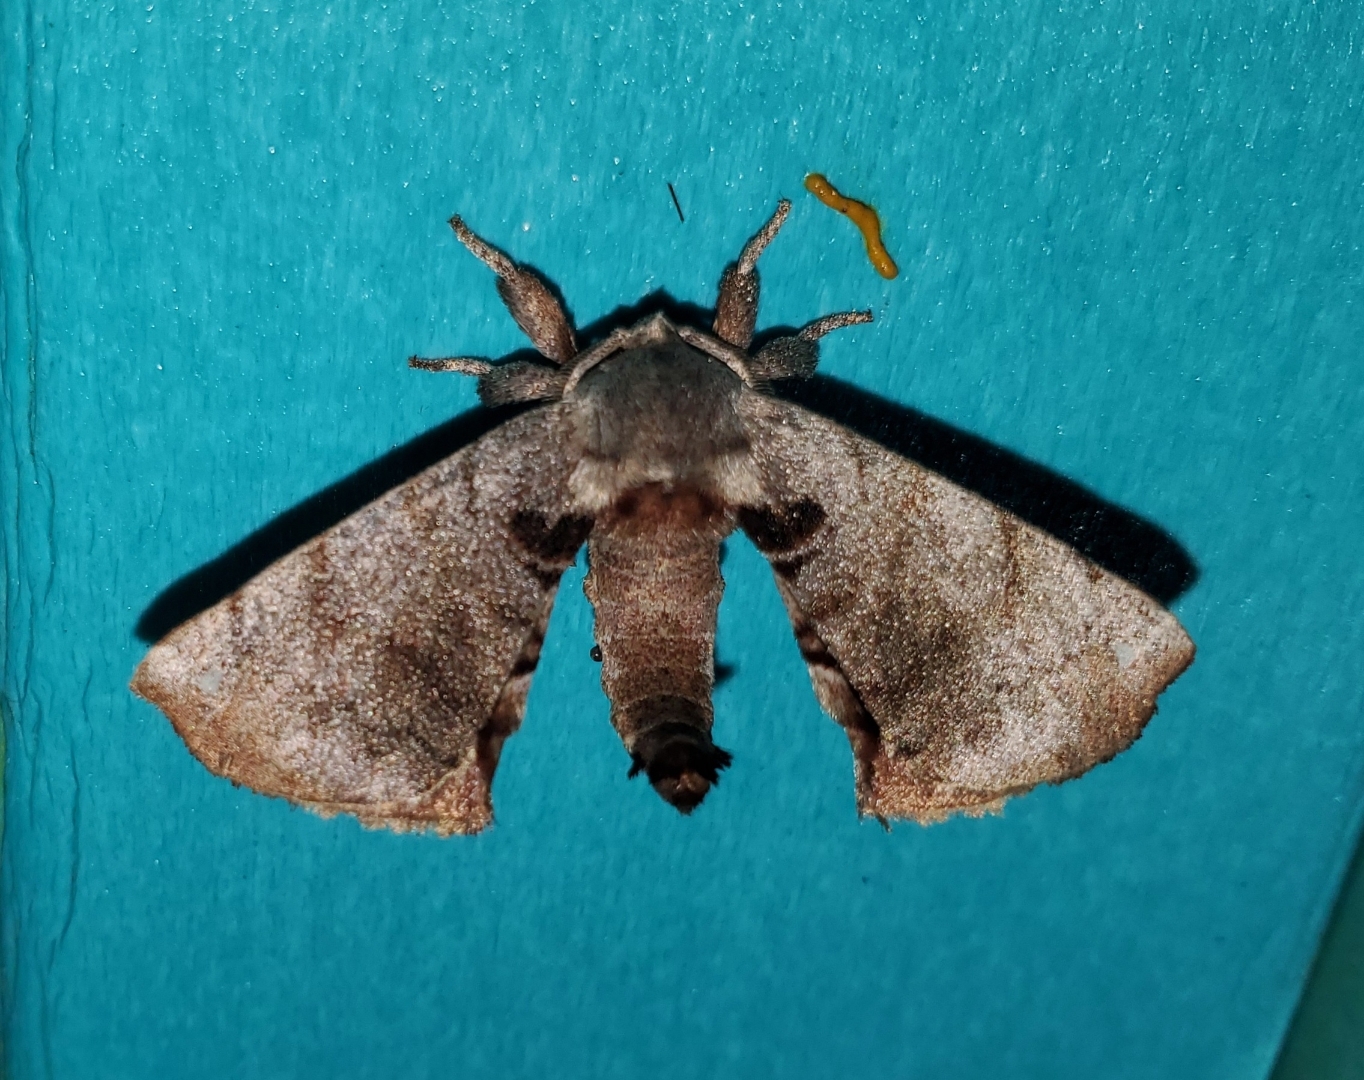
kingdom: Animalia
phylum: Arthropoda
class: Insecta
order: Lepidoptera
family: Apatelodidae
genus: Hygrochroa
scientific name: Hygrochroa Apatelodes torrefacta
